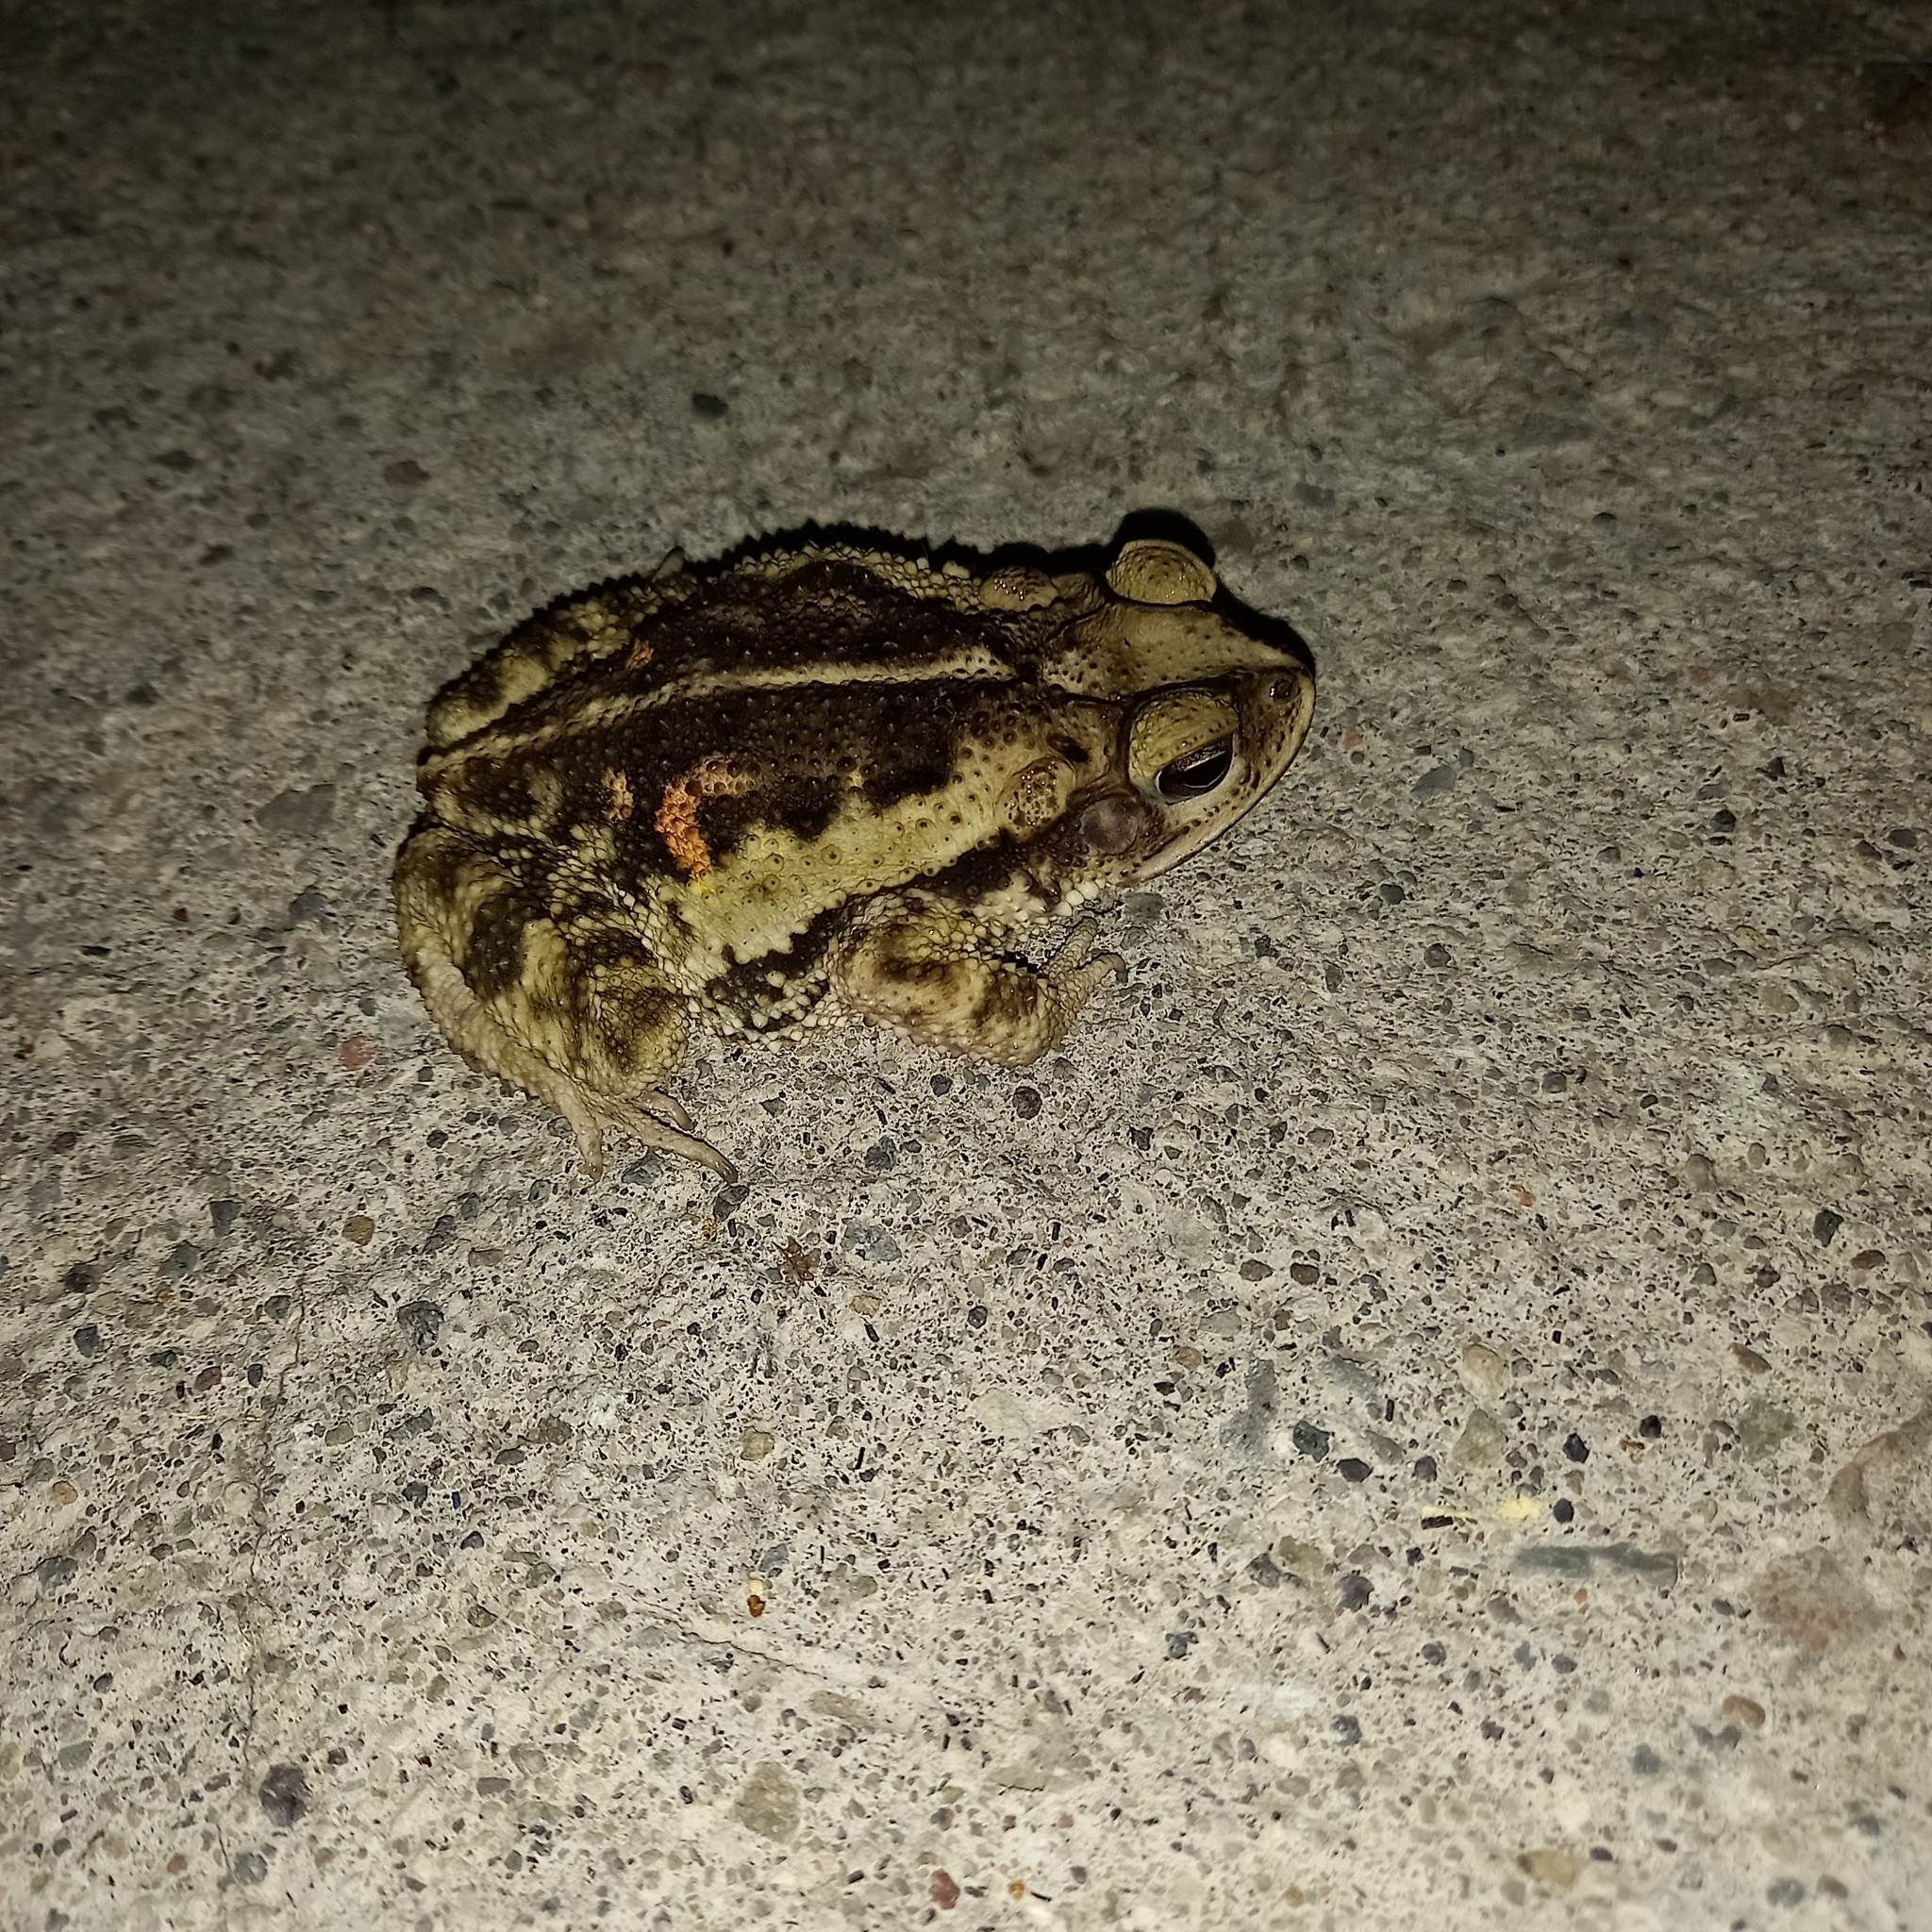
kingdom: Animalia
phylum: Chordata
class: Amphibia
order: Anura
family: Bufonidae
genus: Incilius
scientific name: Incilius luetkenii
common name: Yellow toad
